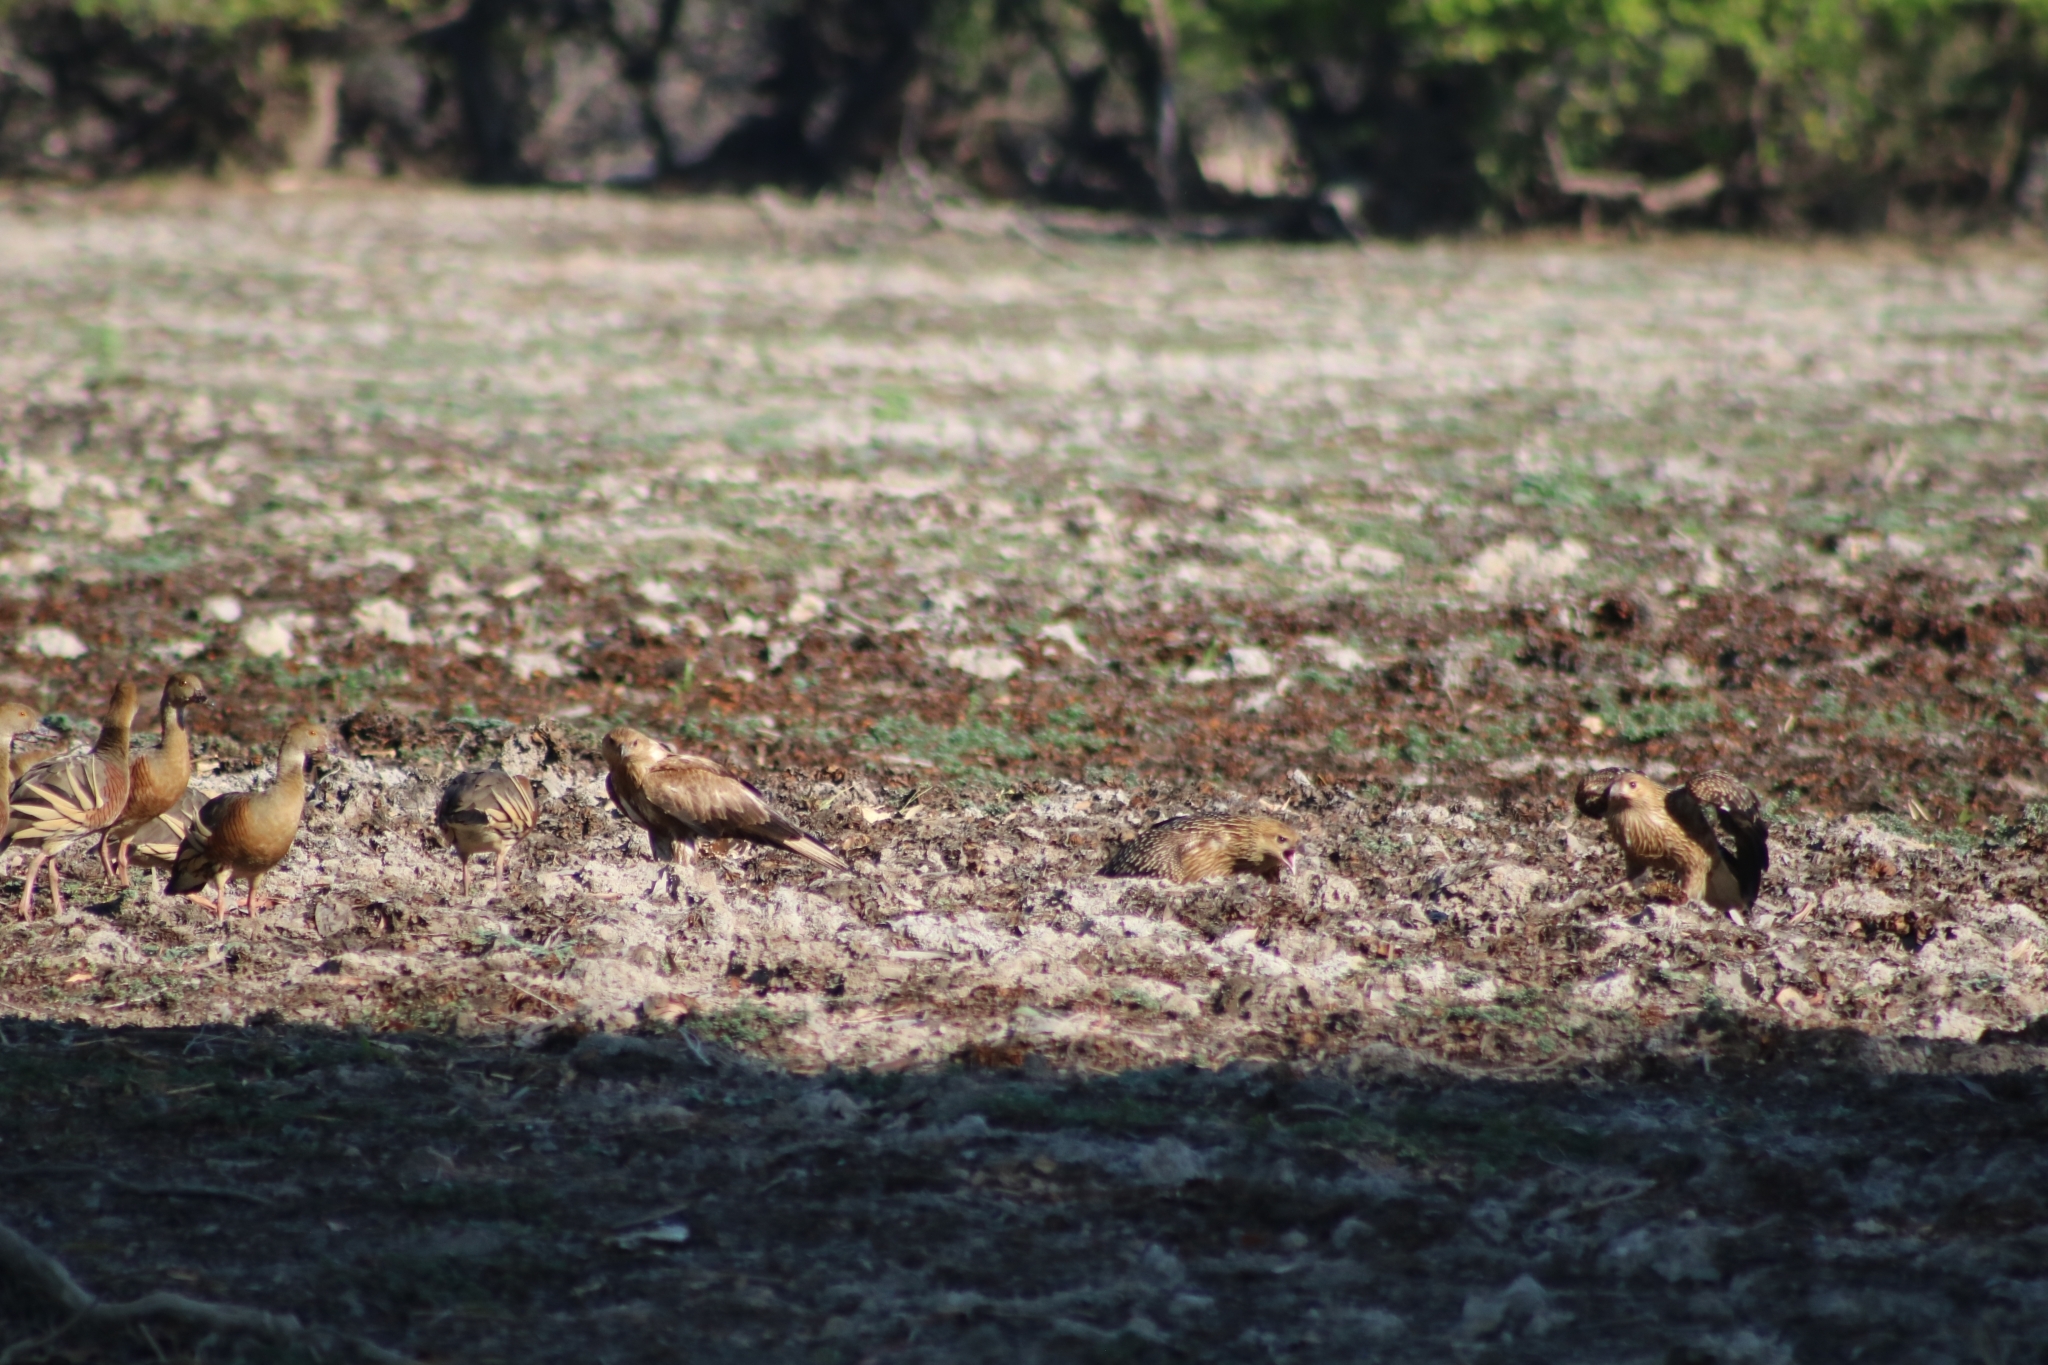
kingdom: Animalia
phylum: Chordata
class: Aves
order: Accipitriformes
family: Accipitridae
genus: Haliastur
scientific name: Haliastur sphenurus
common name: Whistling kite
